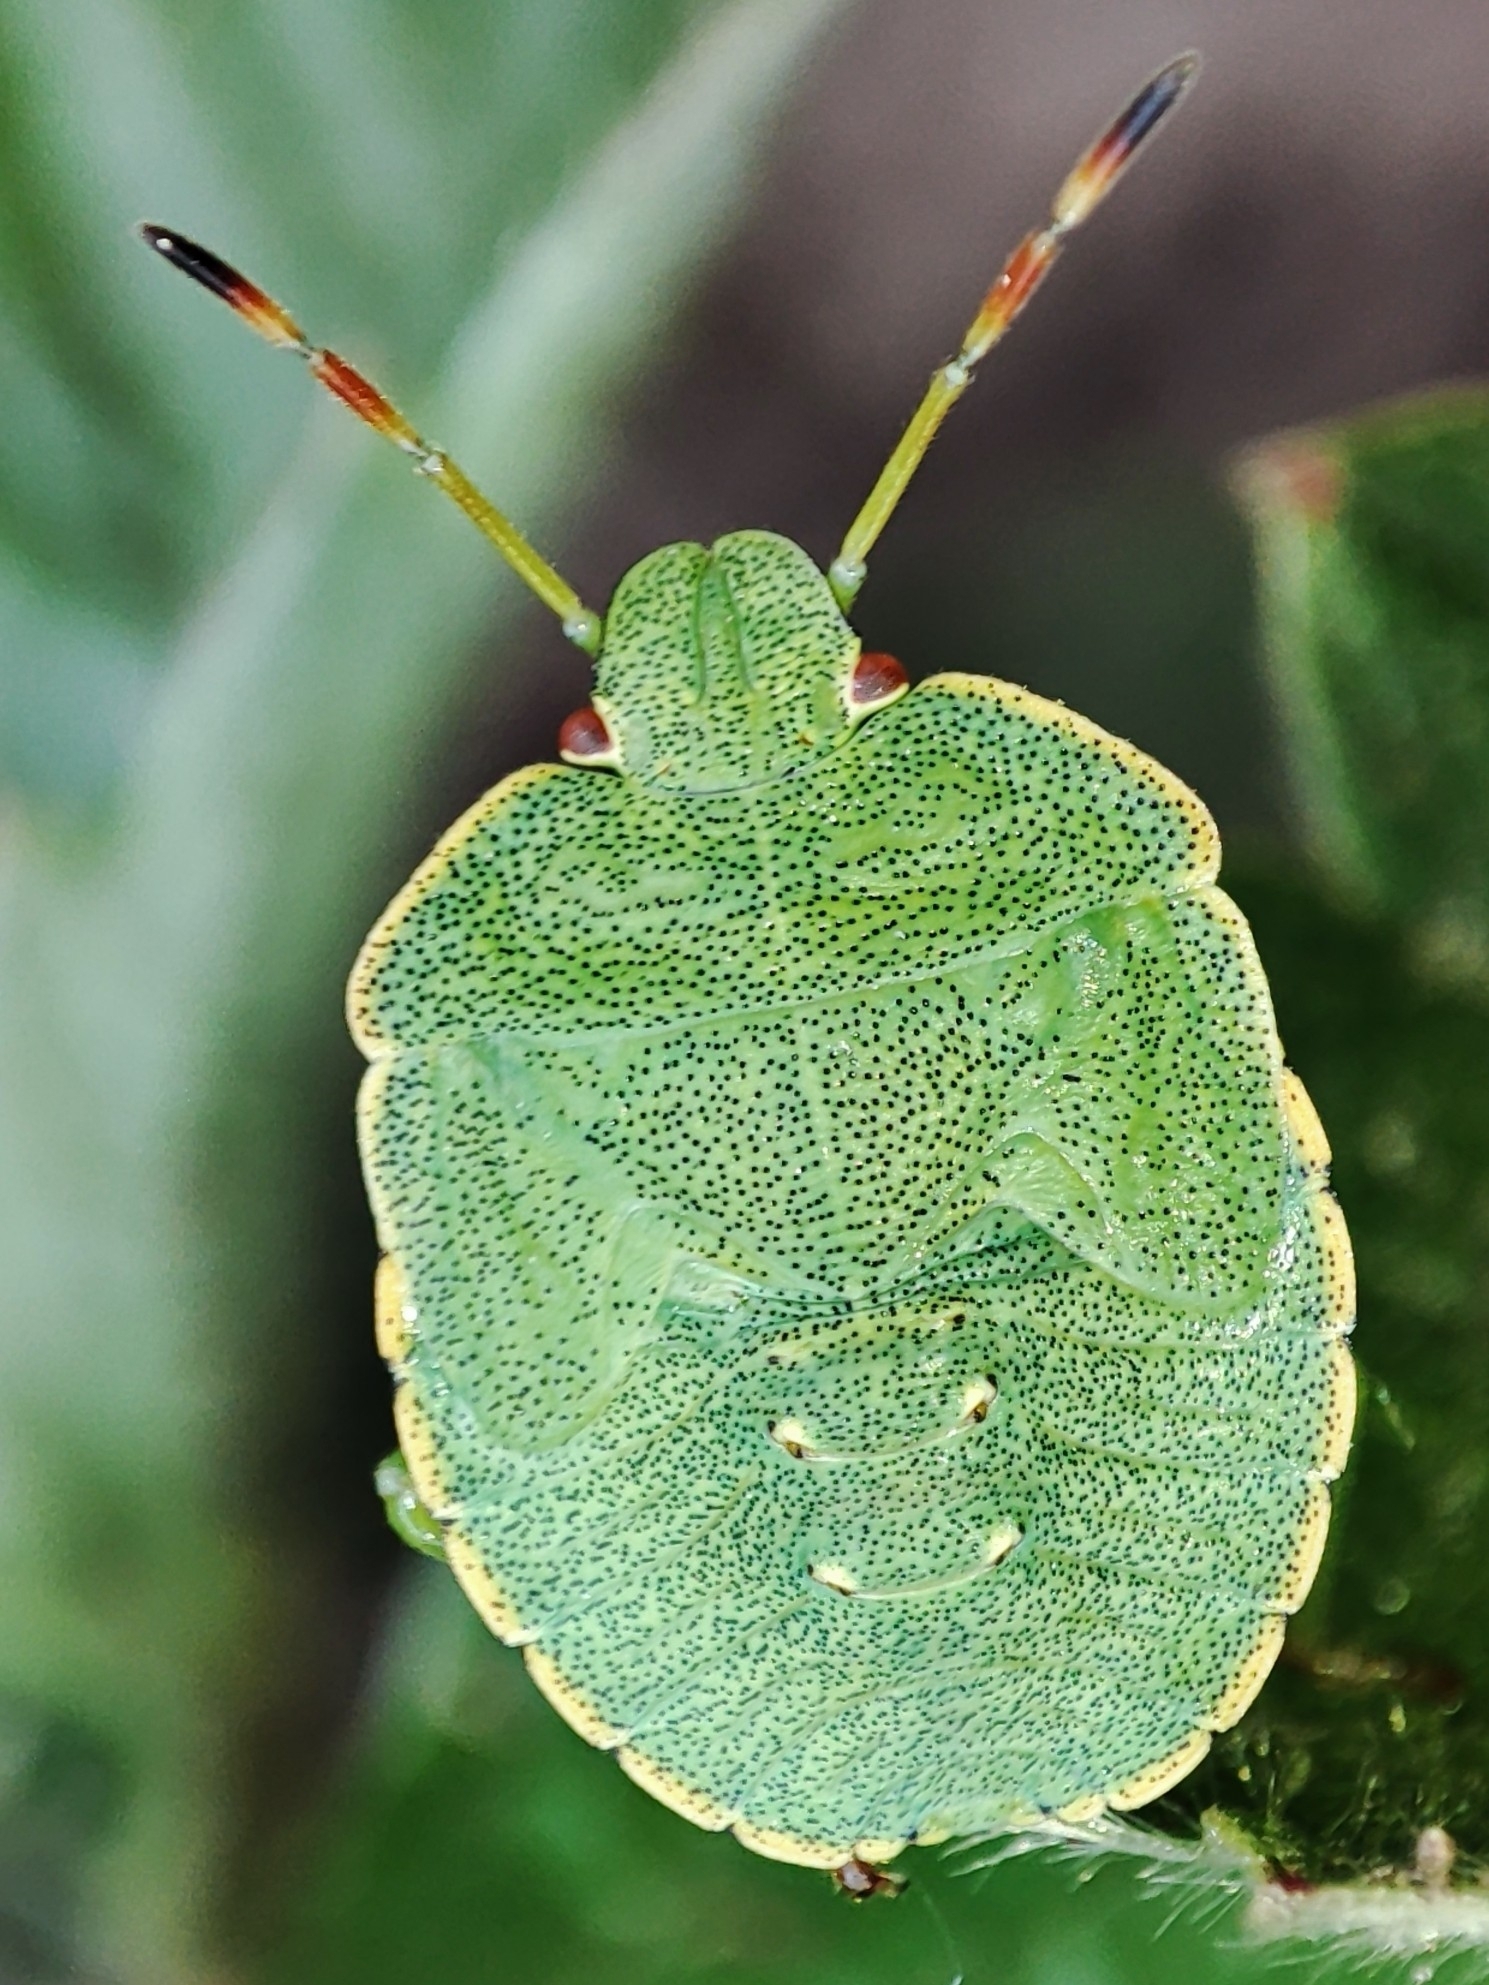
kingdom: Animalia
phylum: Arthropoda
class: Insecta
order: Hemiptera
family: Pentatomidae
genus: Palomena
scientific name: Palomena prasina
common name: Green shieldbug
